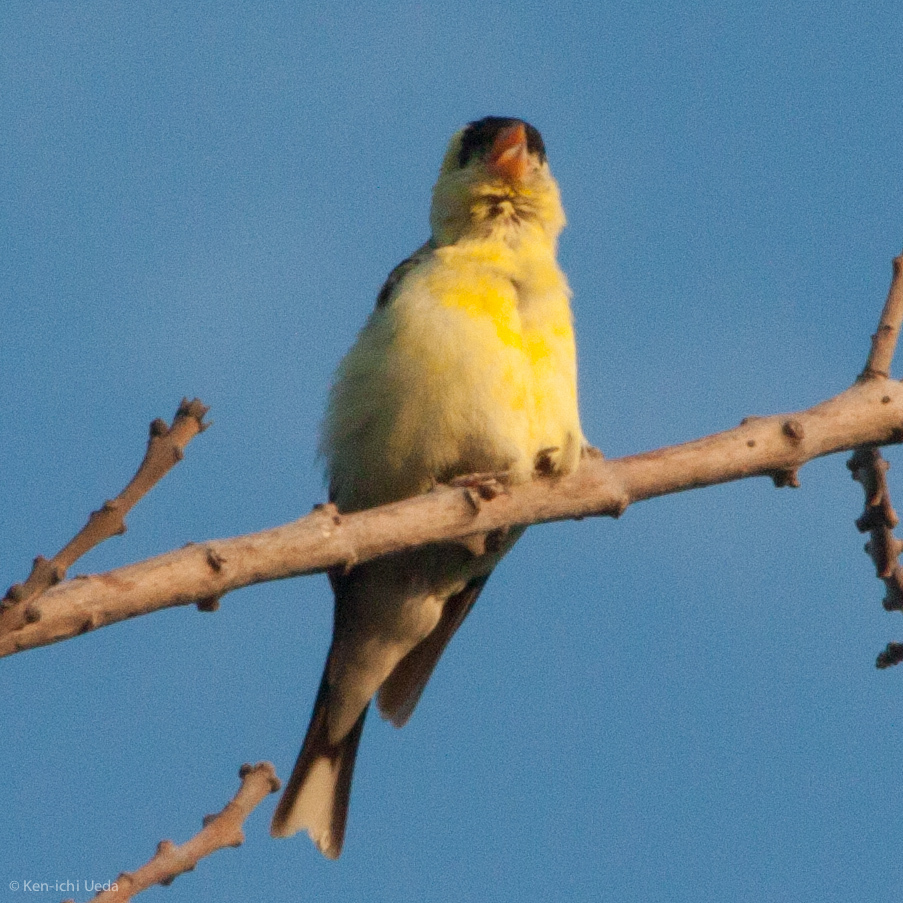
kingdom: Animalia
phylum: Chordata
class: Aves
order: Passeriformes
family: Fringillidae
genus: Spinus
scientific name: Spinus tristis
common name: American goldfinch
